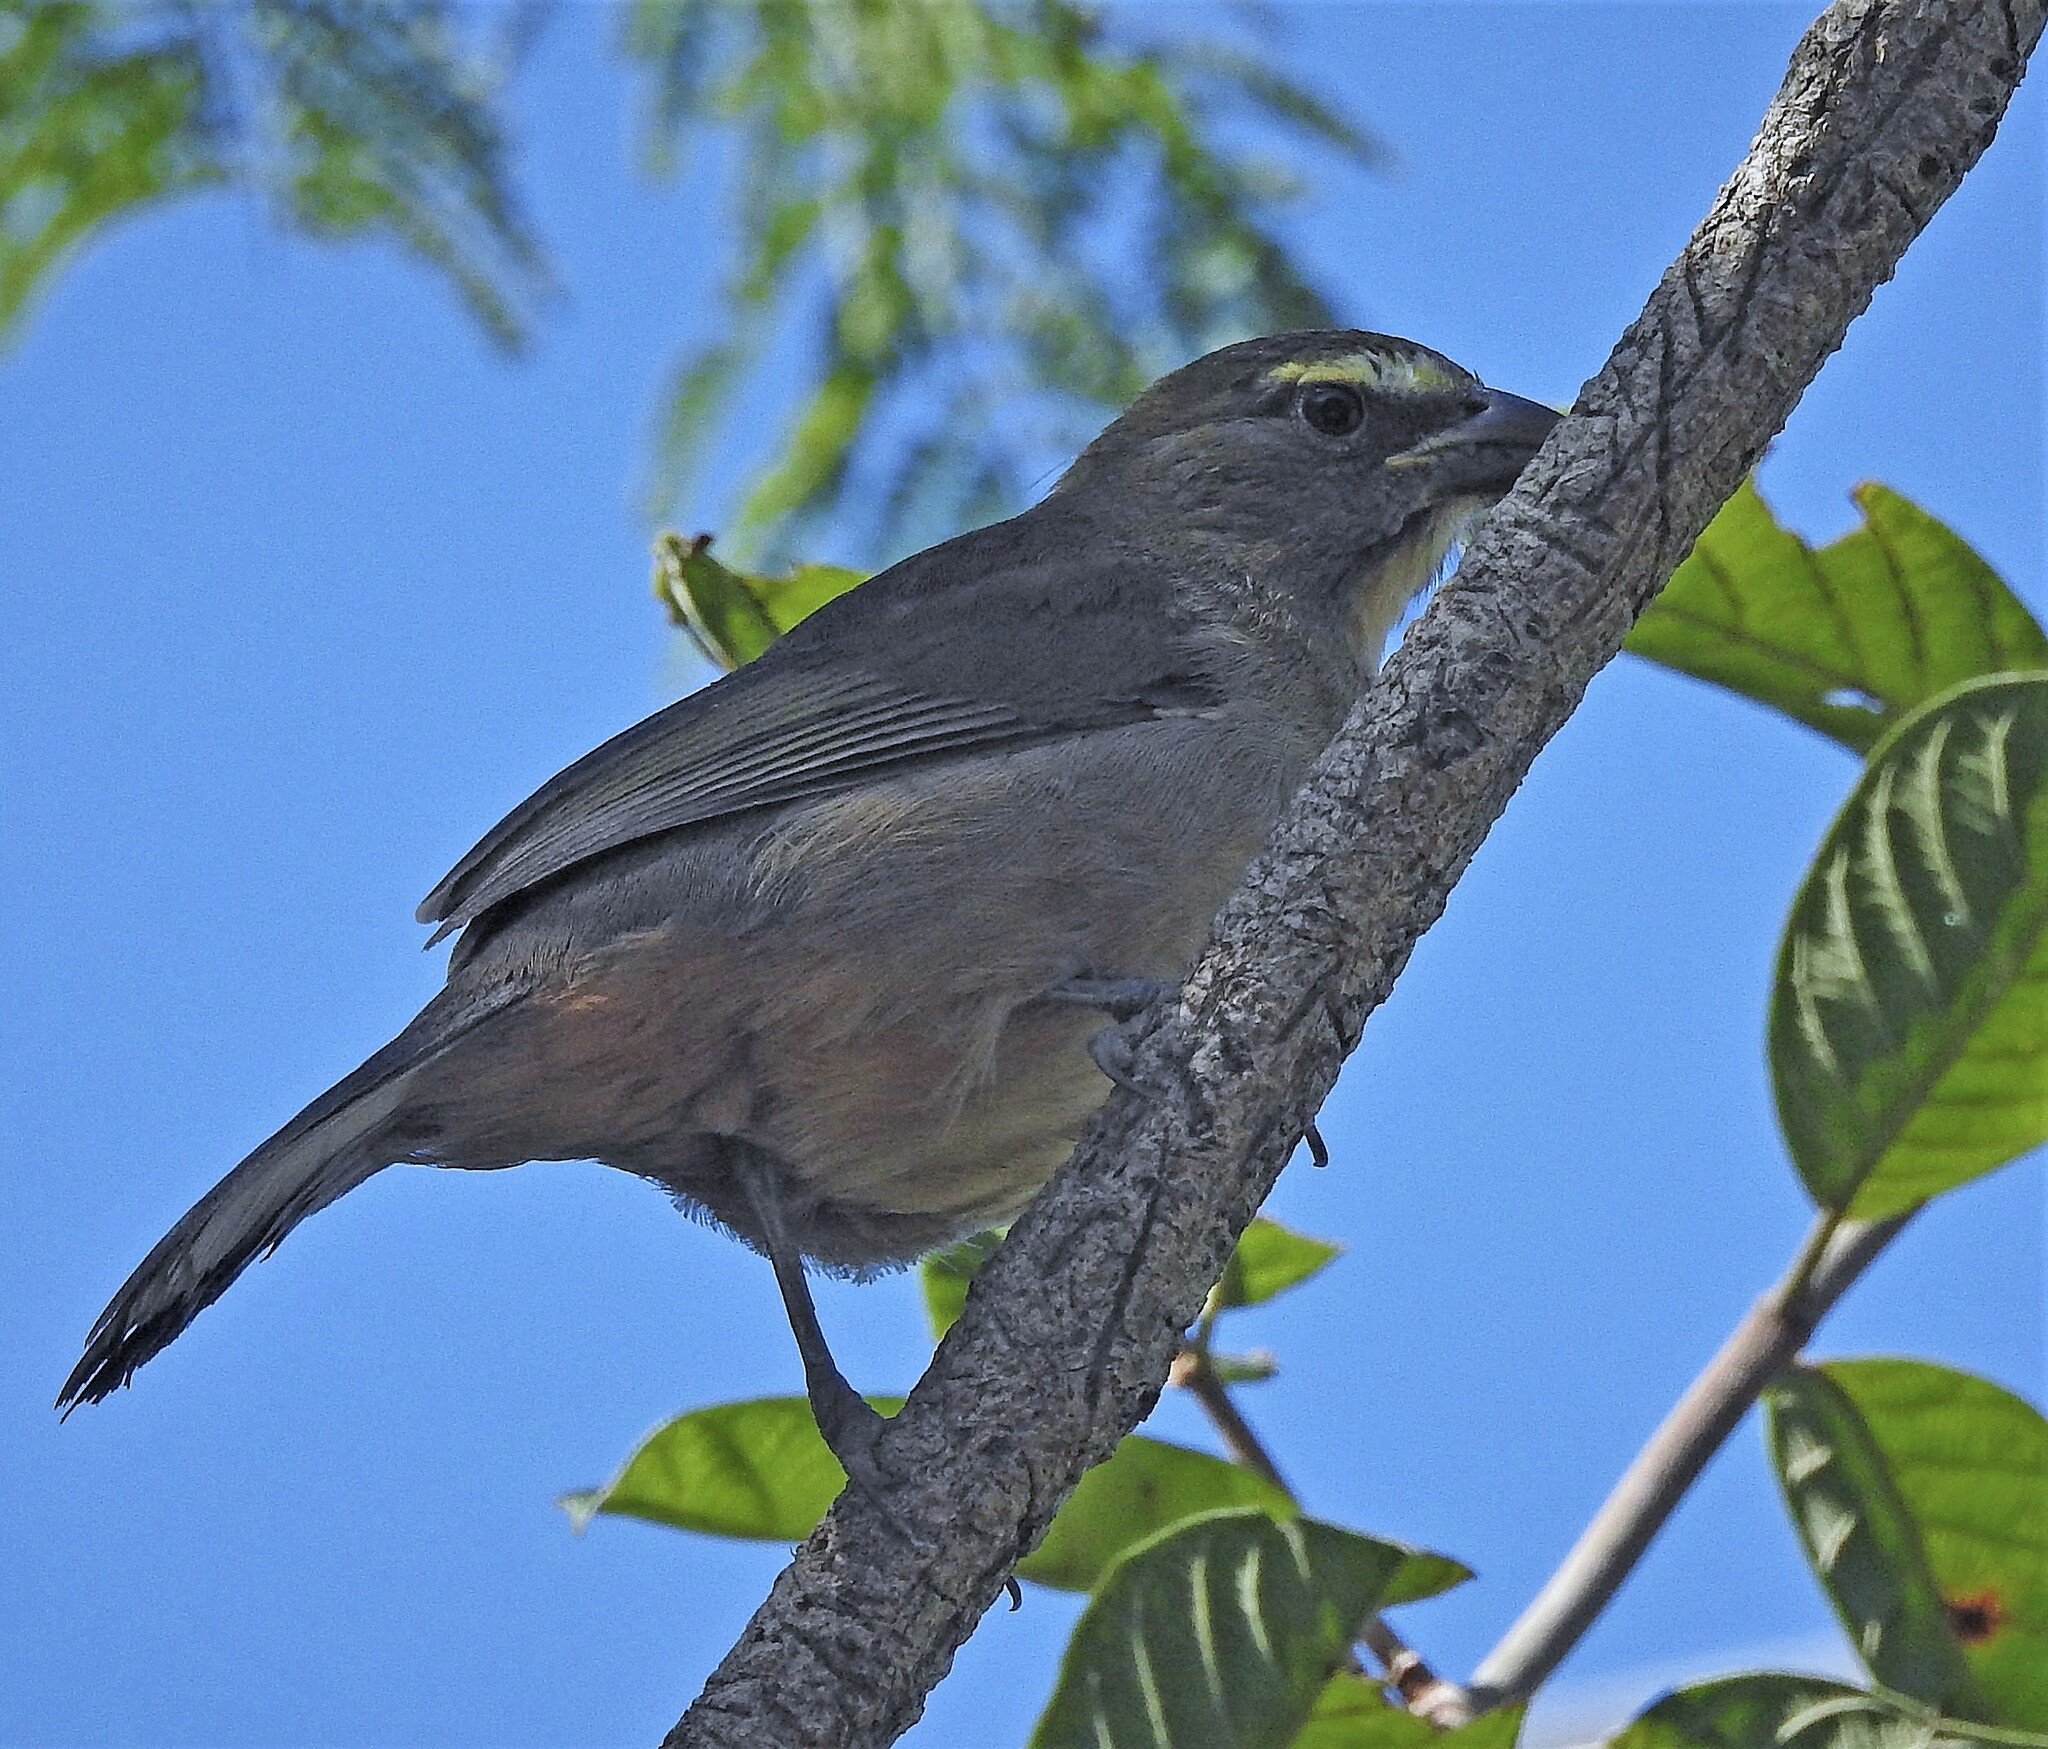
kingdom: Animalia
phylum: Chordata
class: Aves
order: Passeriformes
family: Thraupidae
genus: Saltator
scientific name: Saltator coerulescens
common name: Grayish saltator
